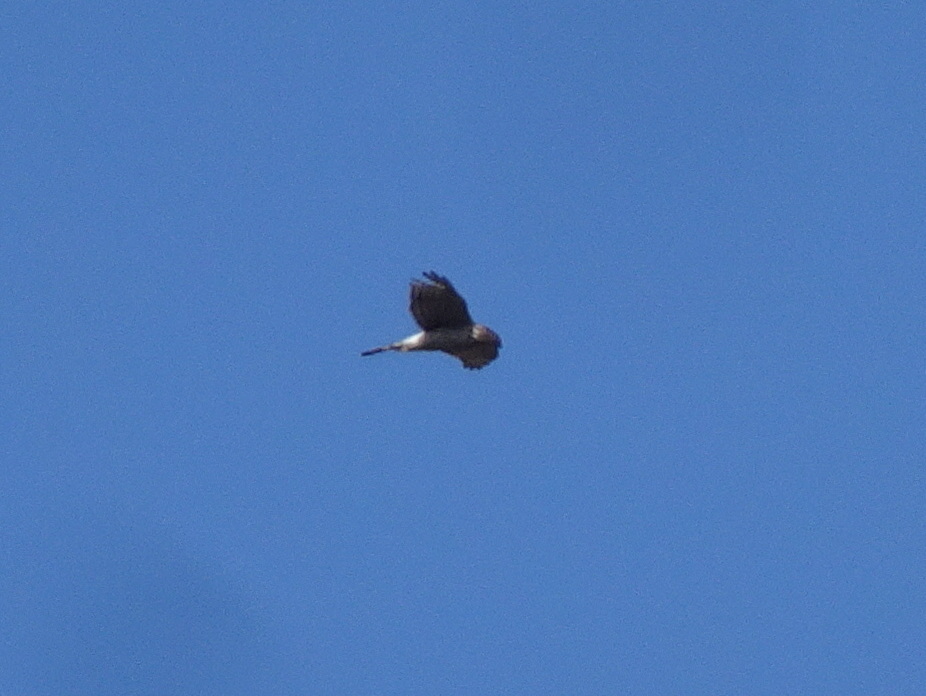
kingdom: Animalia
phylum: Chordata
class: Aves
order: Accipitriformes
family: Accipitridae
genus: Accipiter
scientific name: Accipiter cooperii
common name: Cooper's hawk
